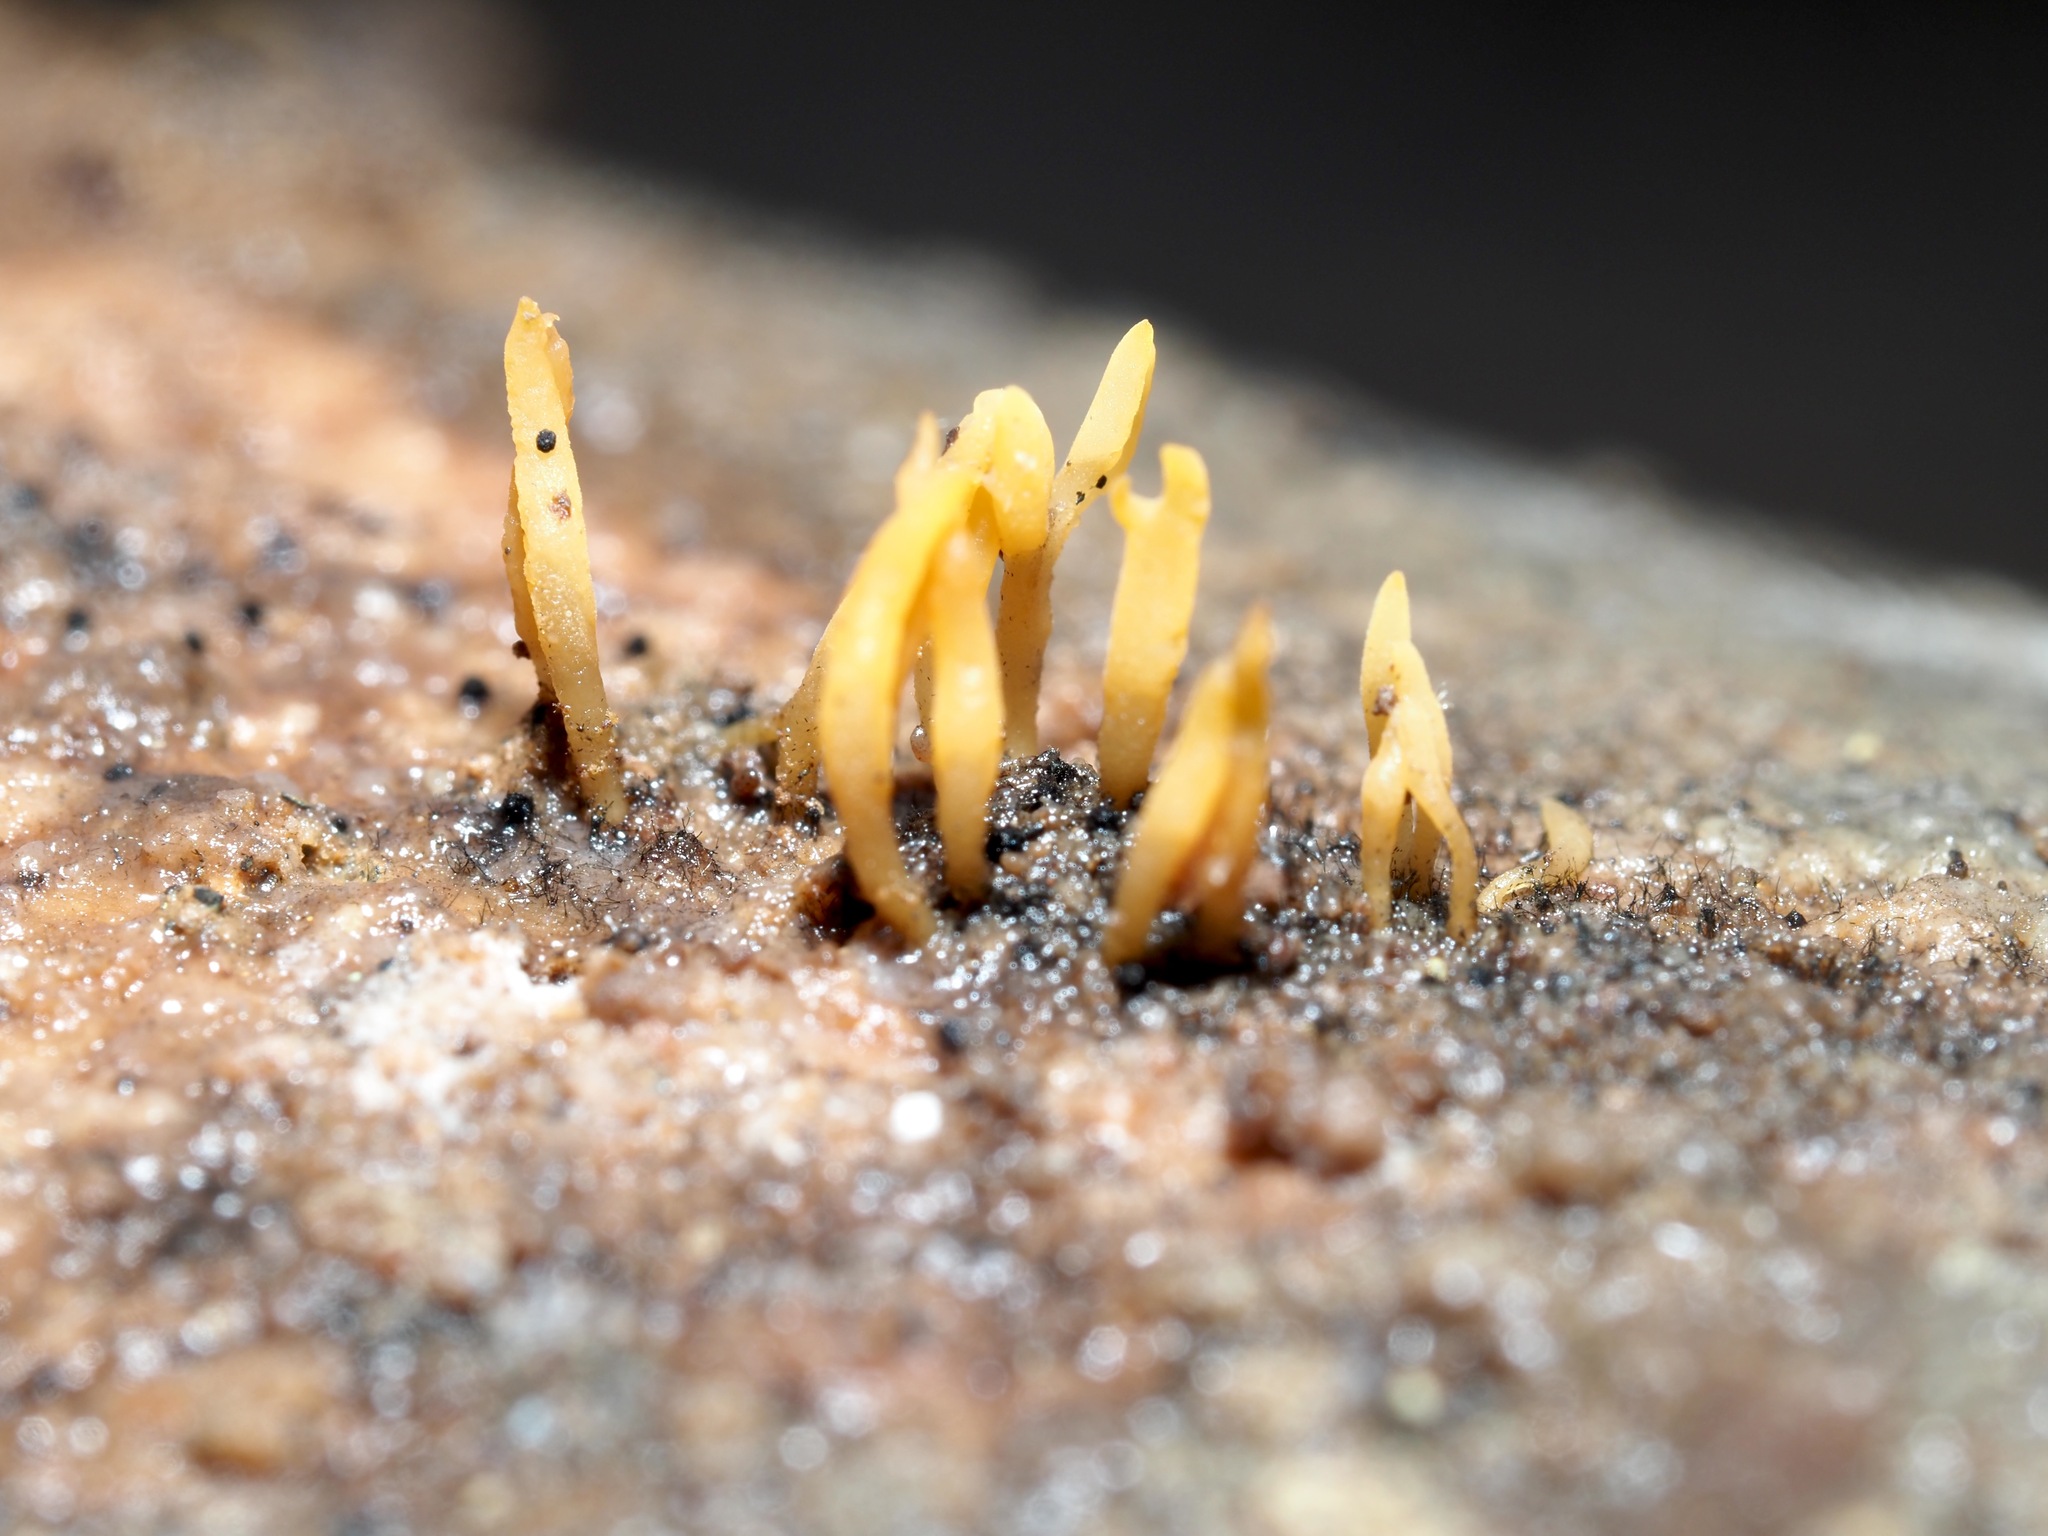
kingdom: Fungi
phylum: Basidiomycota
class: Dacrymycetes
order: Dacrymycetales
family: Dacrymycetaceae
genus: Calocera
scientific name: Calocera cornea
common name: Small stagshorn
